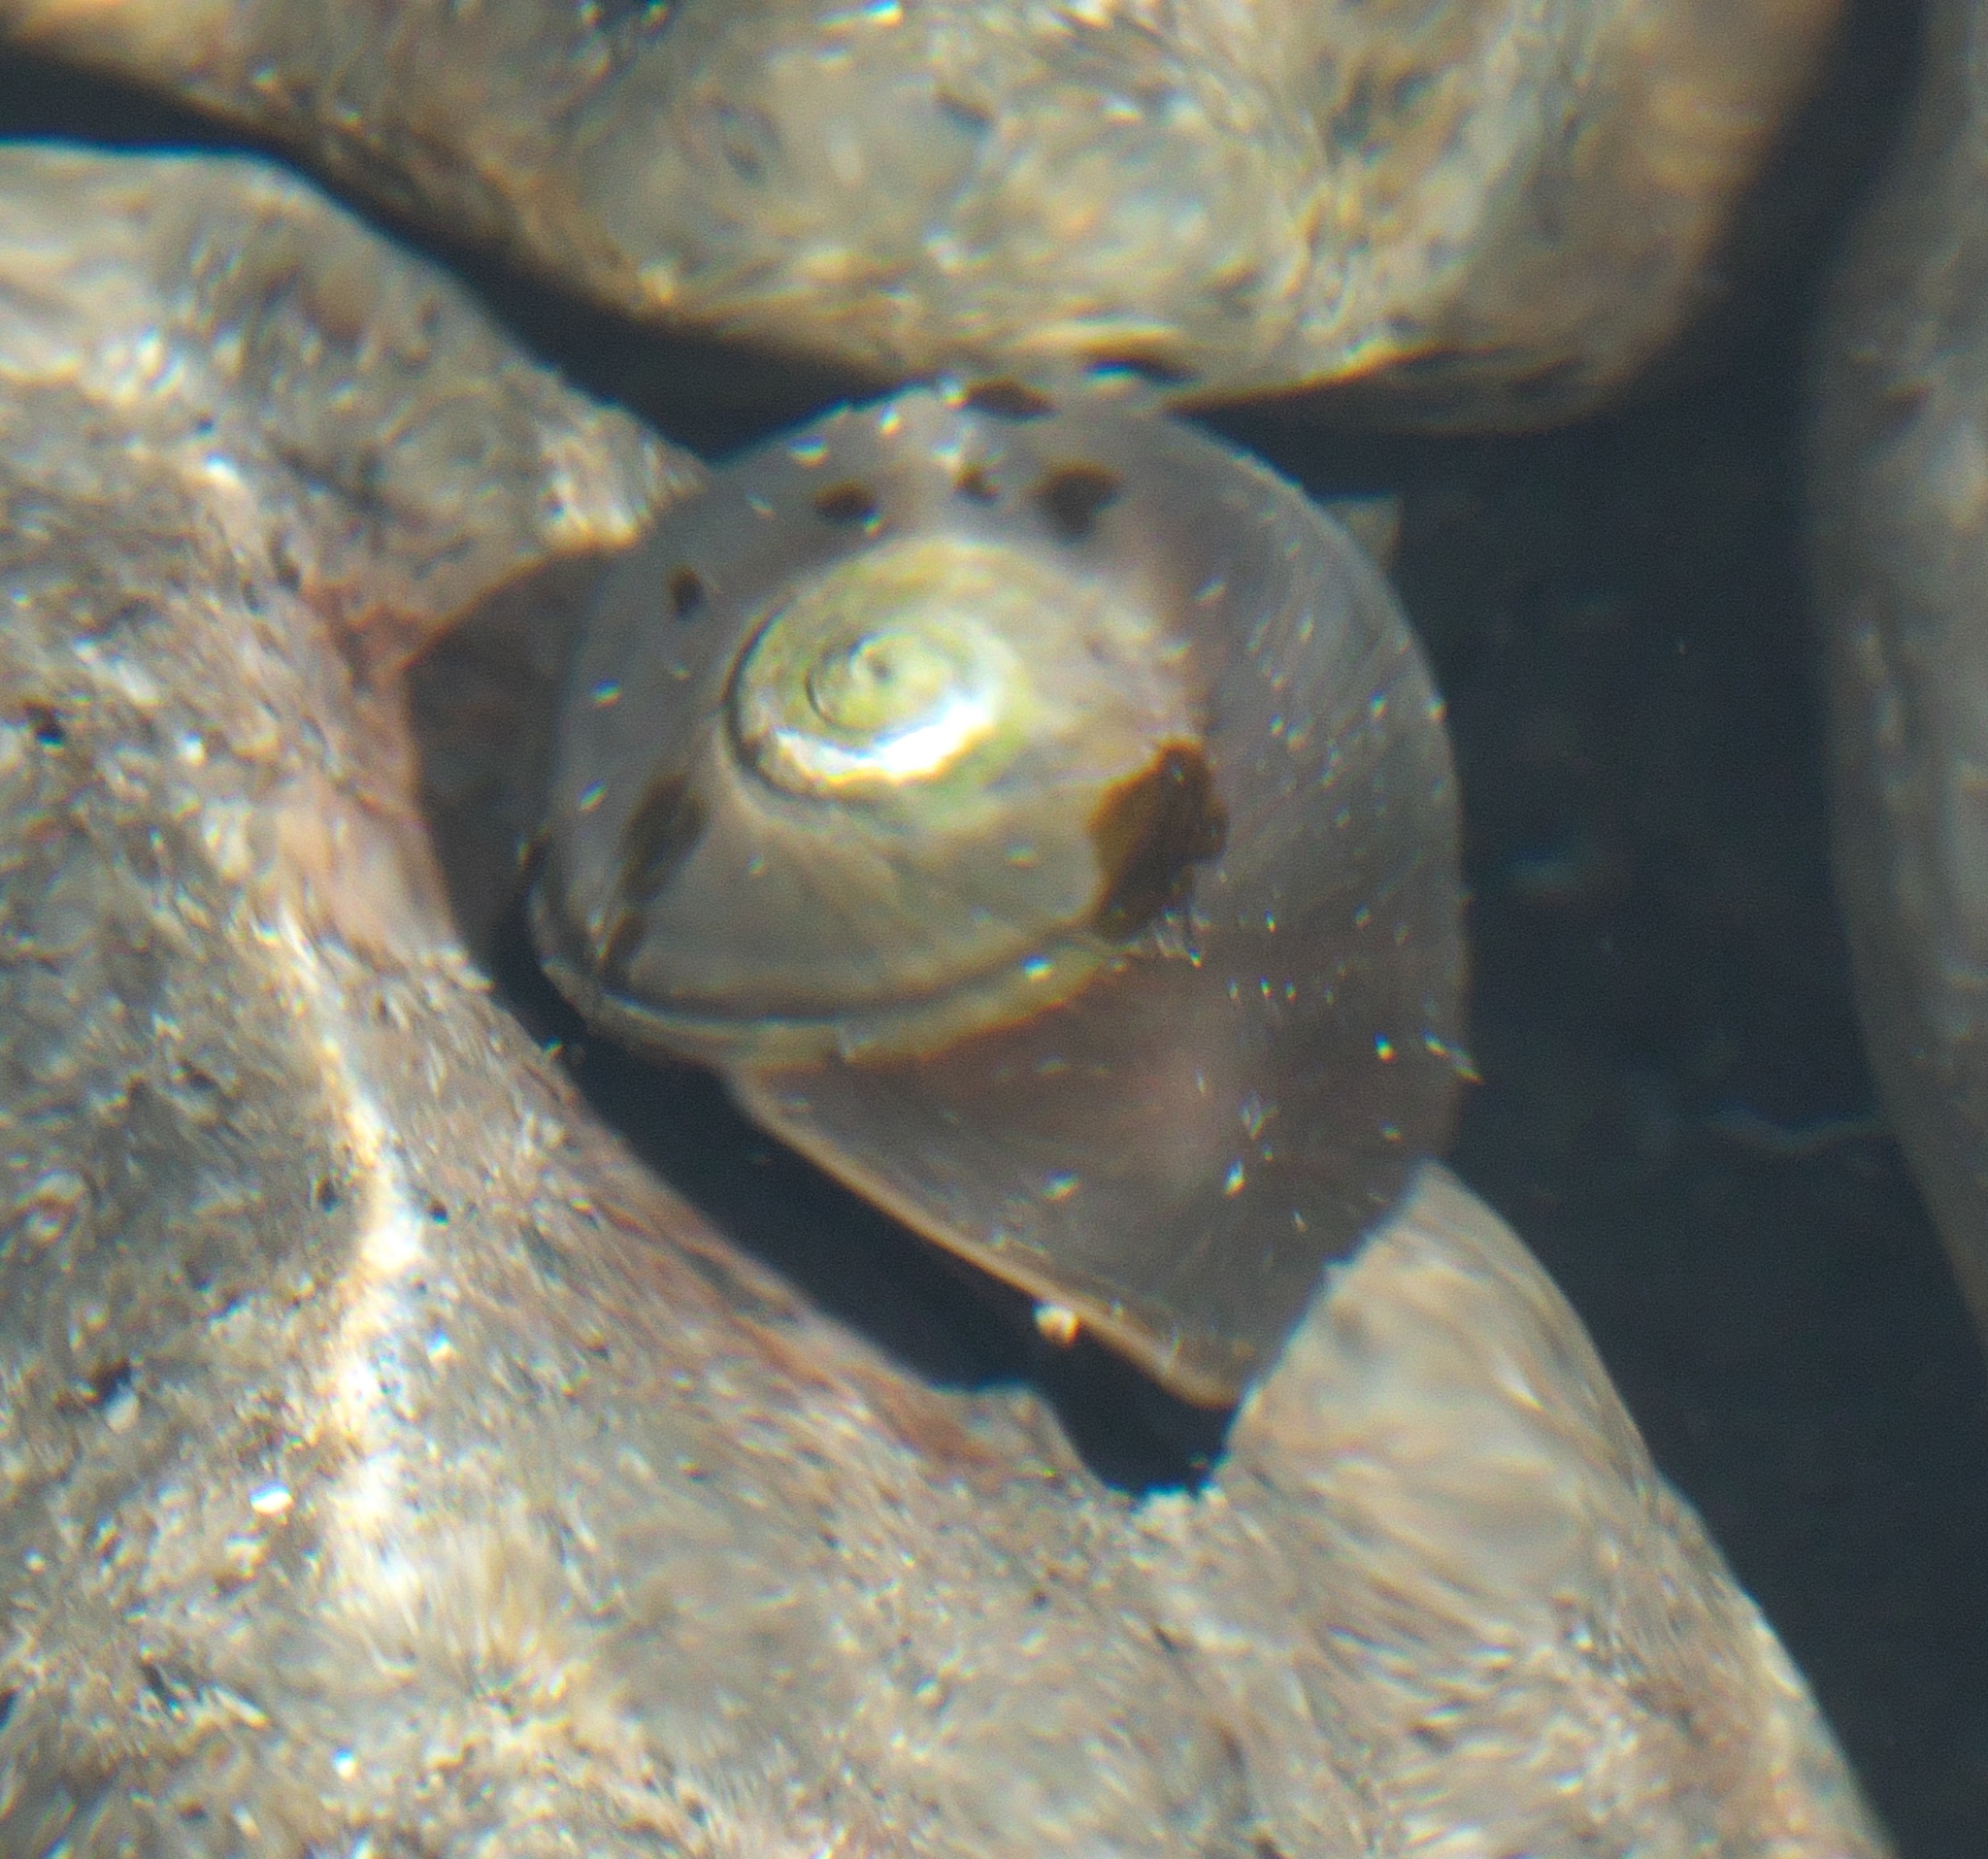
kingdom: Animalia
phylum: Mollusca
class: Gastropoda
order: Trochida
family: Turbinidae
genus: Lunella
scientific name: Lunella smaragda
